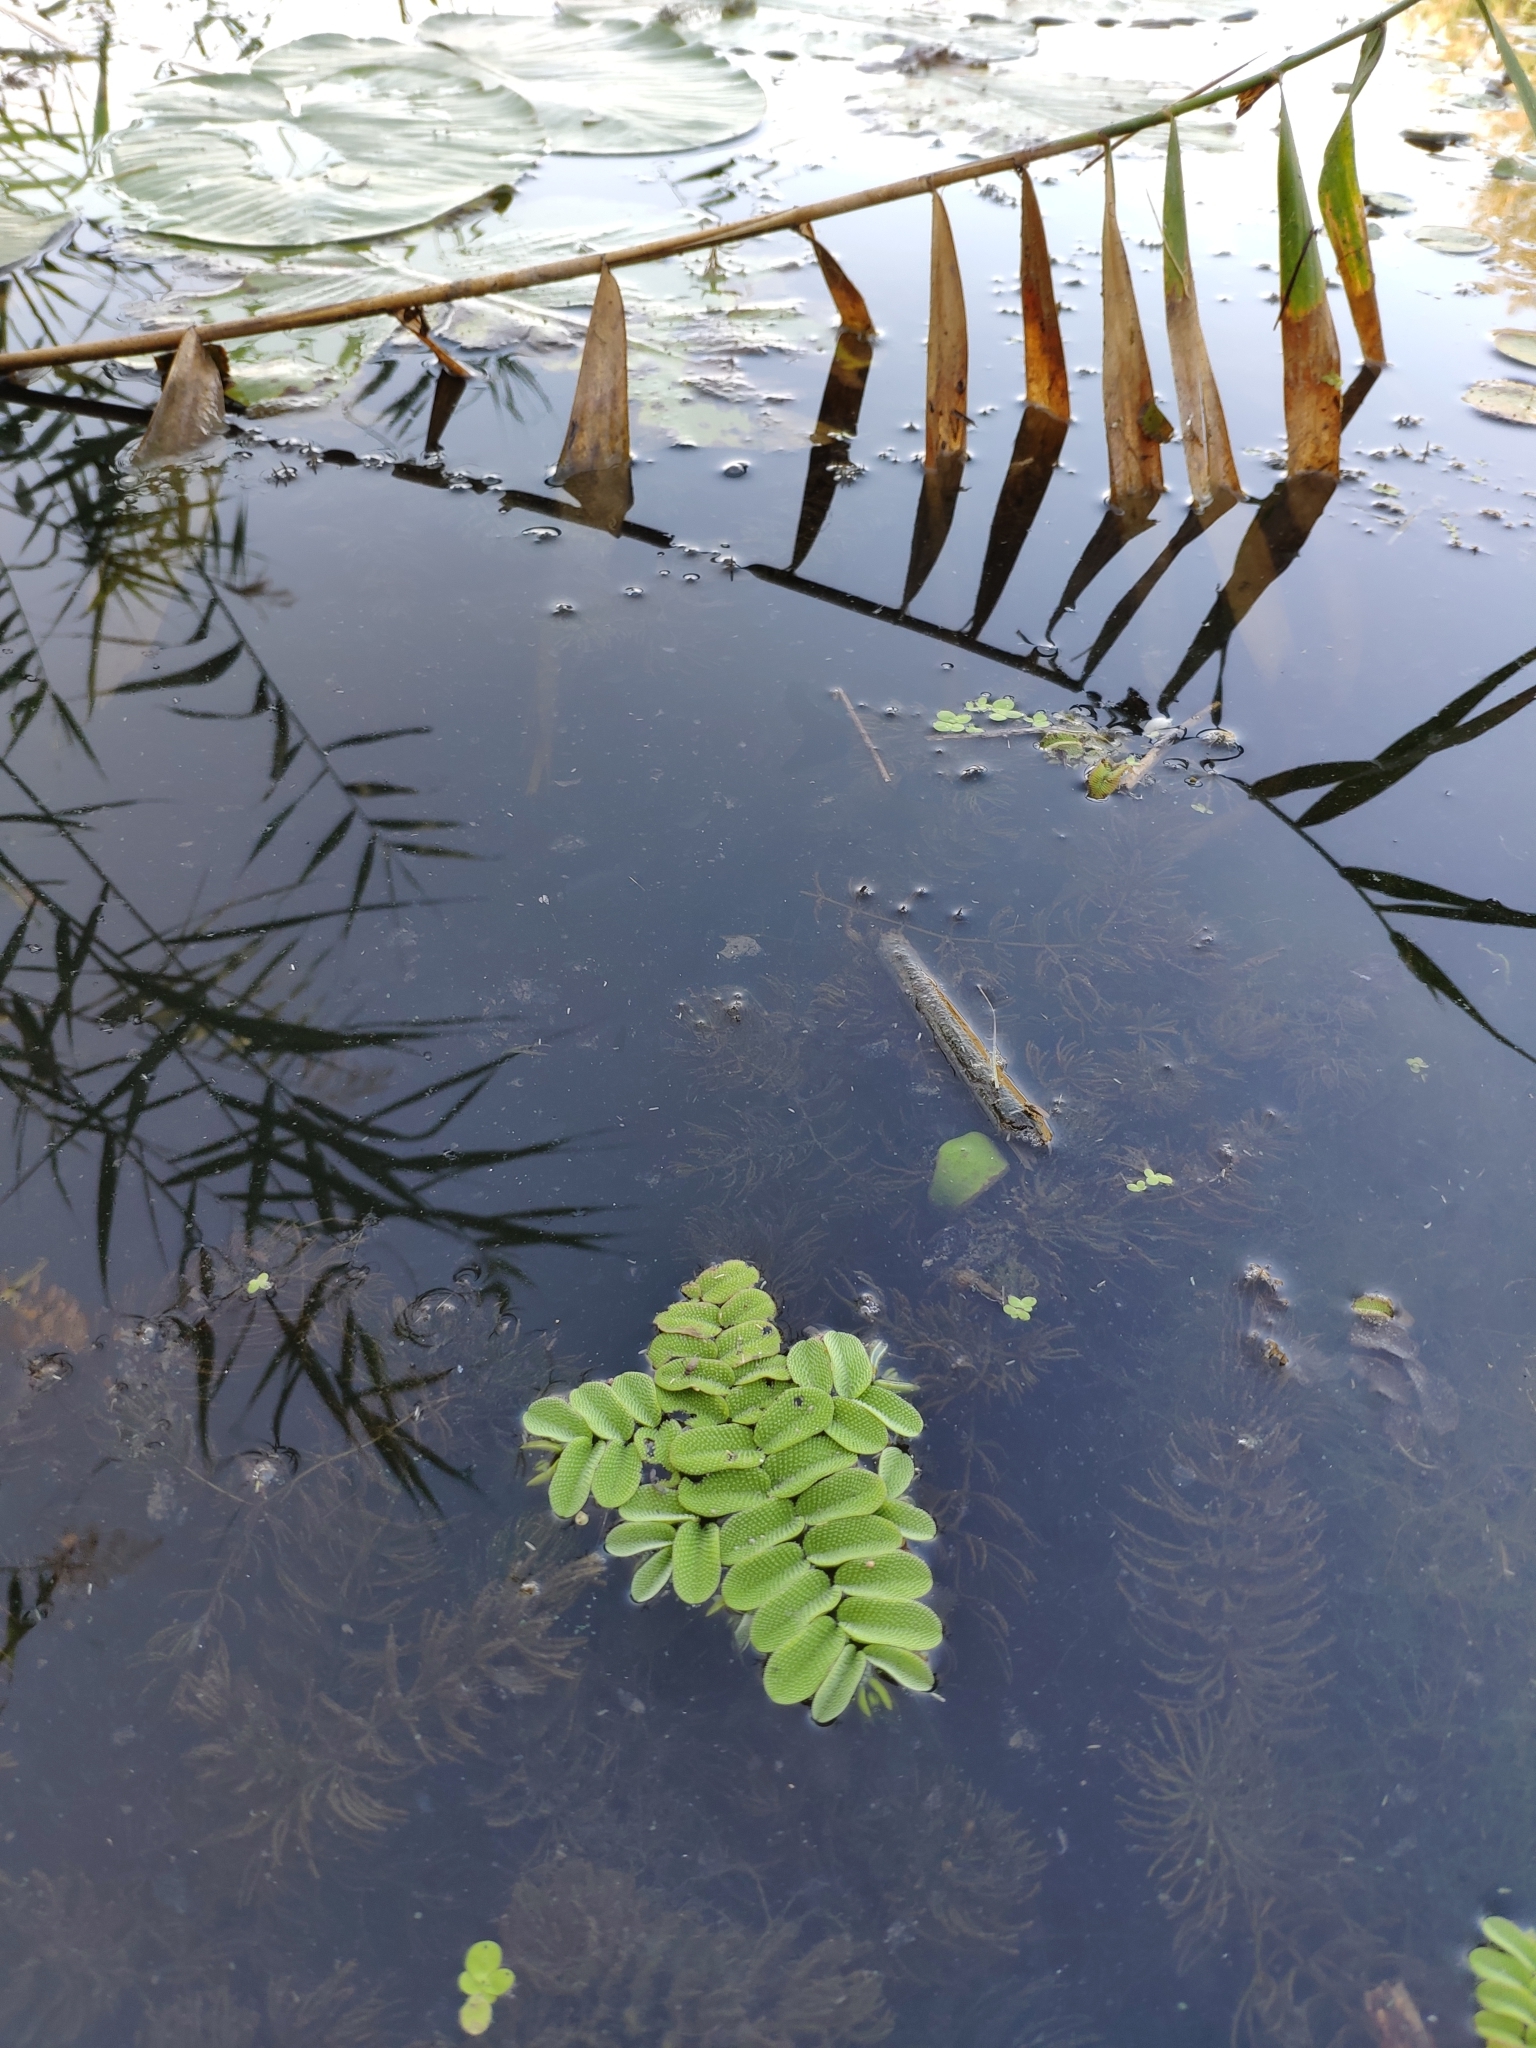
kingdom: Plantae
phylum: Tracheophyta
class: Polypodiopsida
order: Salviniales
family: Salviniaceae
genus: Salvinia
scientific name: Salvinia natans
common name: Floating fern
